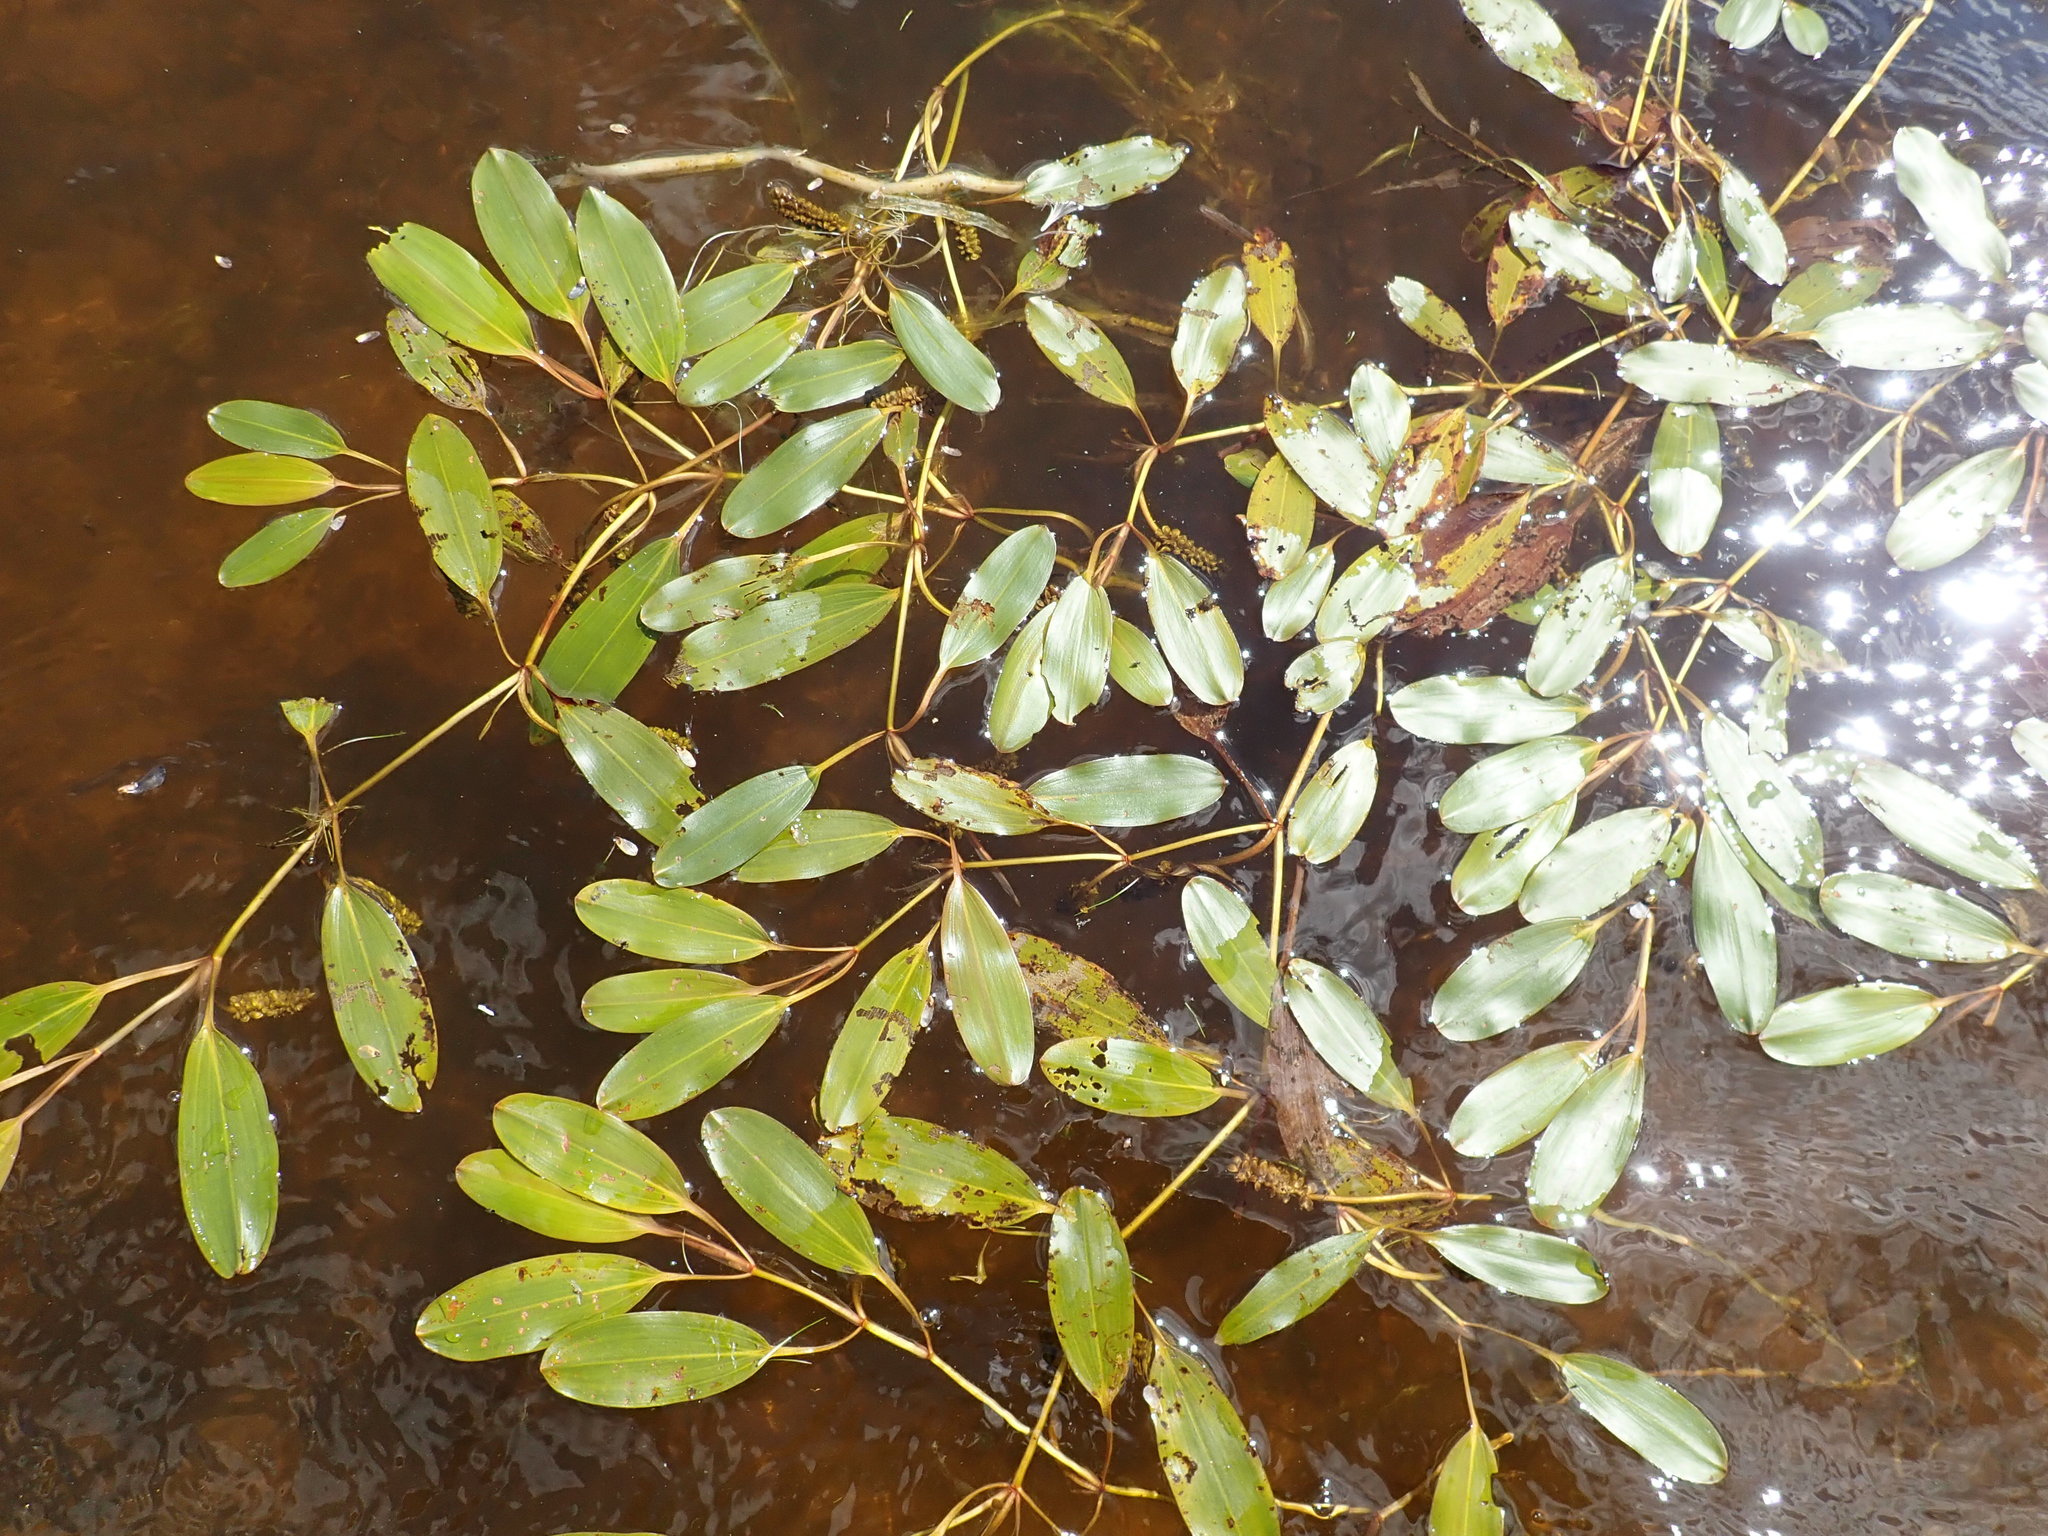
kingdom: Plantae
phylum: Tracheophyta
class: Liliopsida
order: Alismatales
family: Potamogetonaceae
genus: Potamogeton
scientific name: Potamogeton epihydrus
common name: American pondweed
